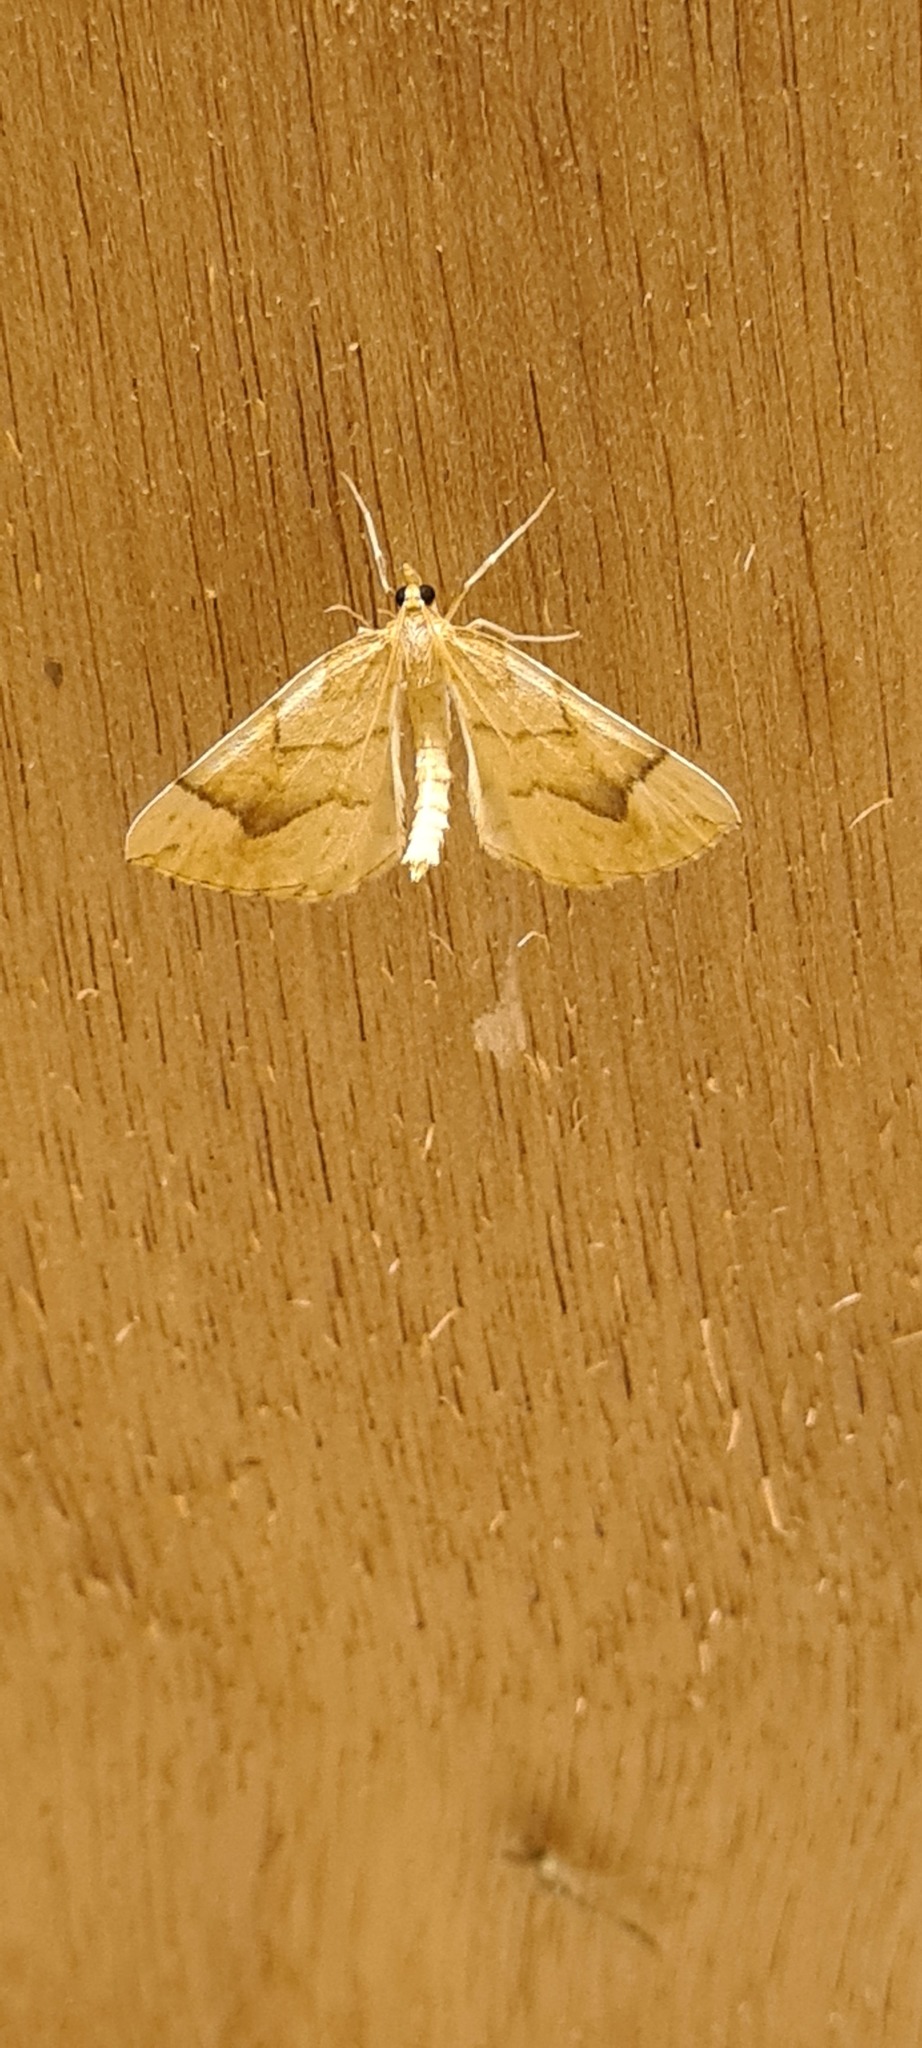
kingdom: Animalia
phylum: Arthropoda
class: Insecta
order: Lepidoptera
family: Geometridae
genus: Eulithis
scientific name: Eulithis mellinata
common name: Spinach
